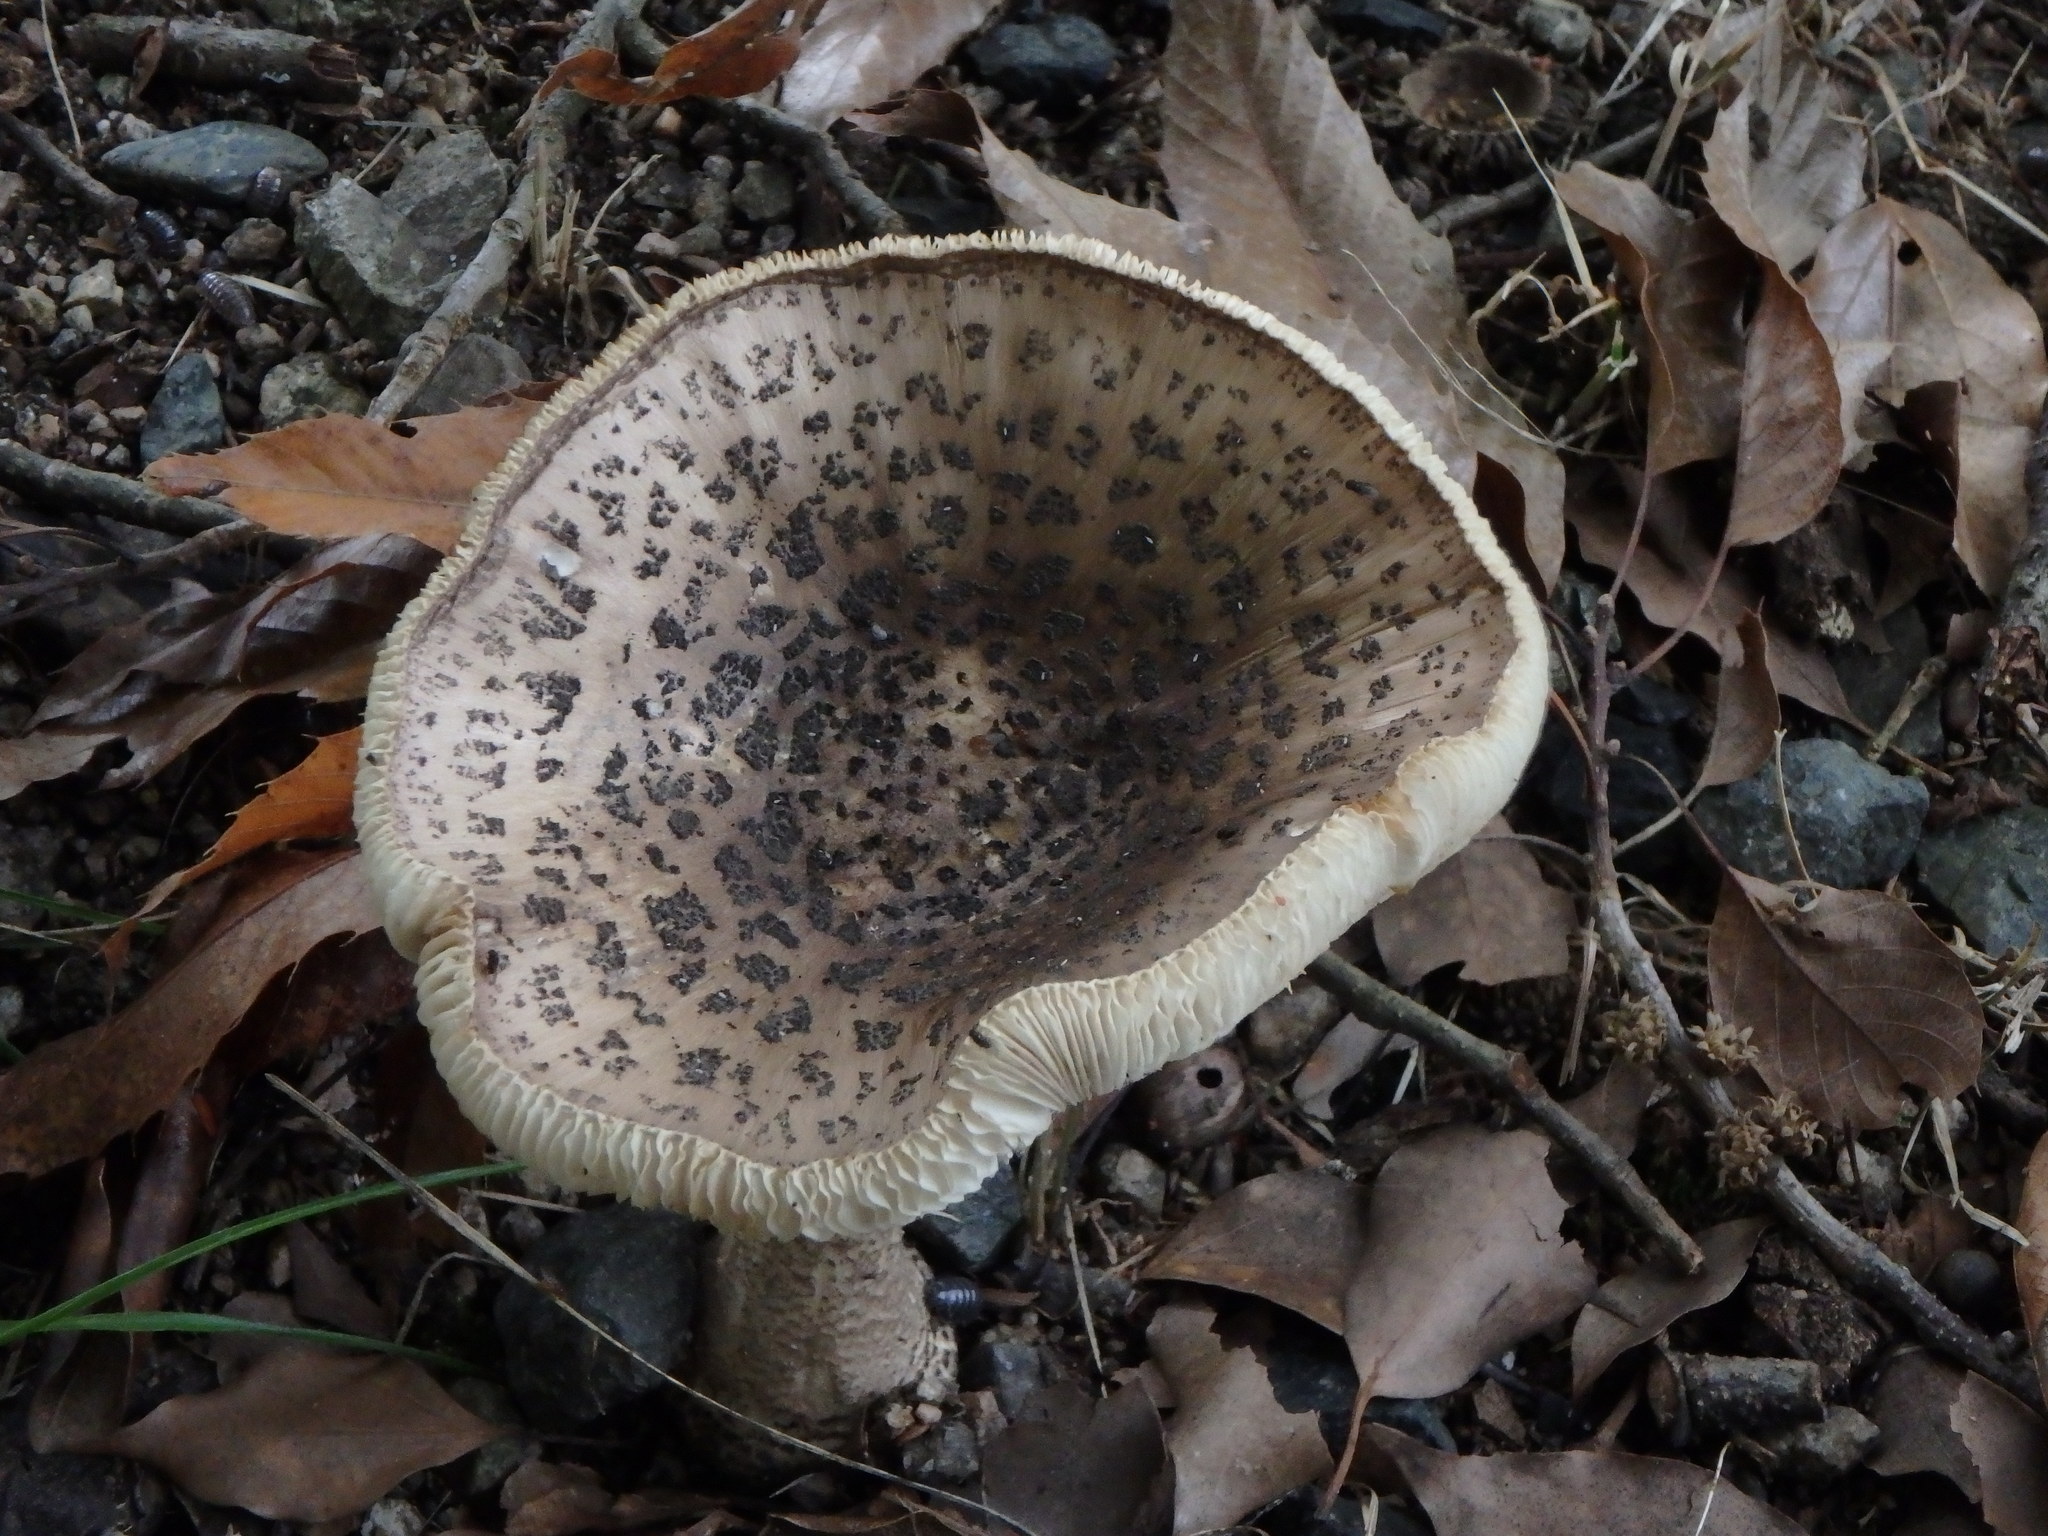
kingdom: Fungi
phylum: Basidiomycota
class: Agaricomycetes
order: Agaricales
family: Amanitaceae
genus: Amanita
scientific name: Amanita spissacea
